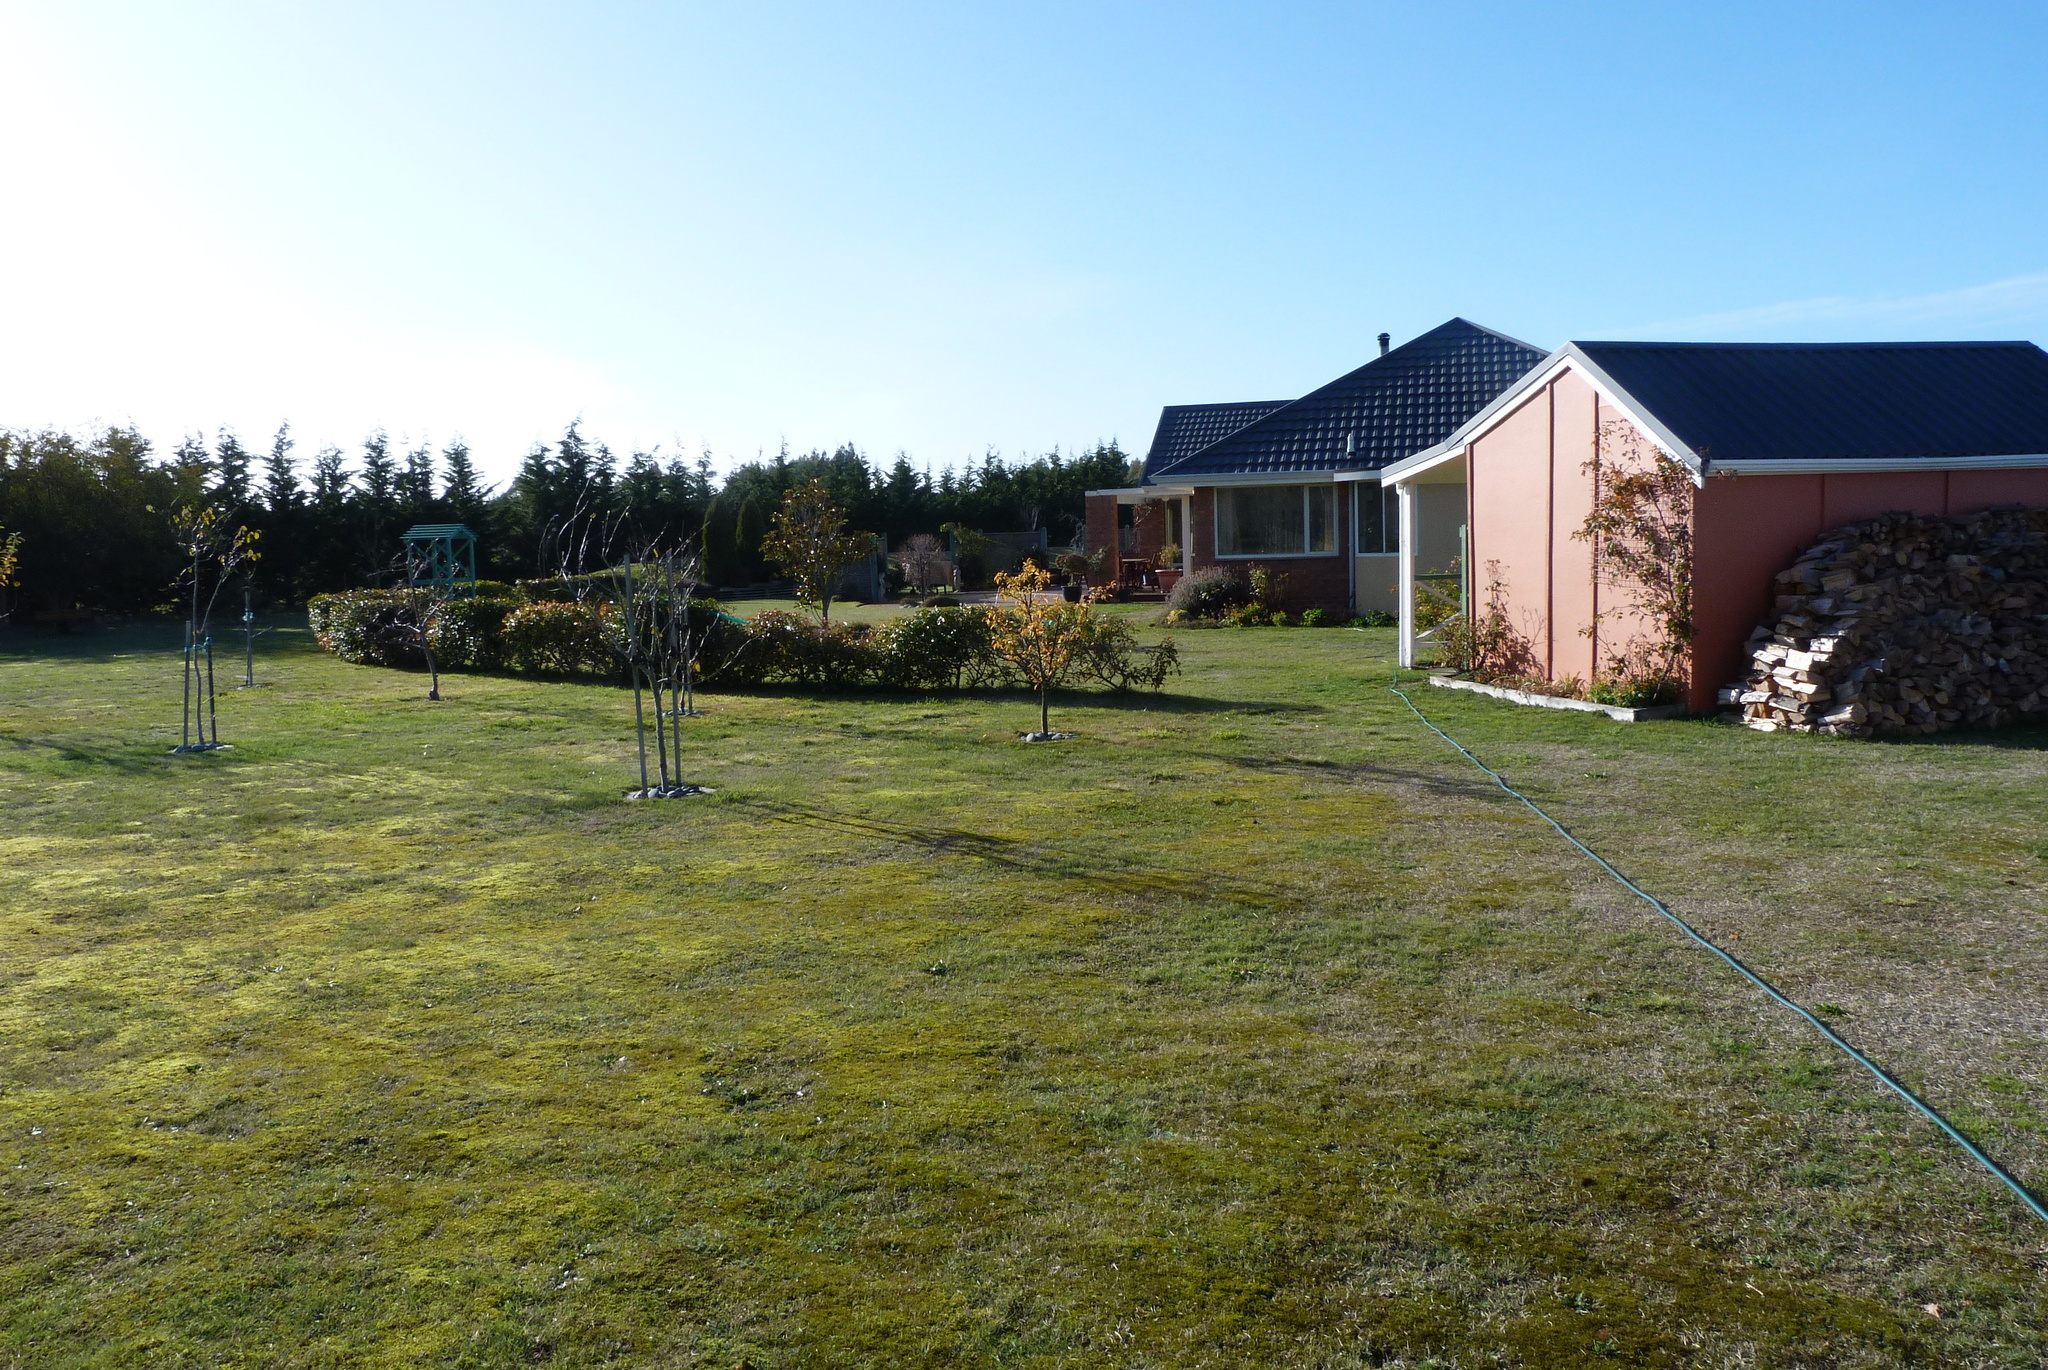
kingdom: Plantae
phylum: Bryophyta
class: Bryopsida
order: Pottiales
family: Pottiaceae
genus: Triquetrella
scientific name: Triquetrella papillata
